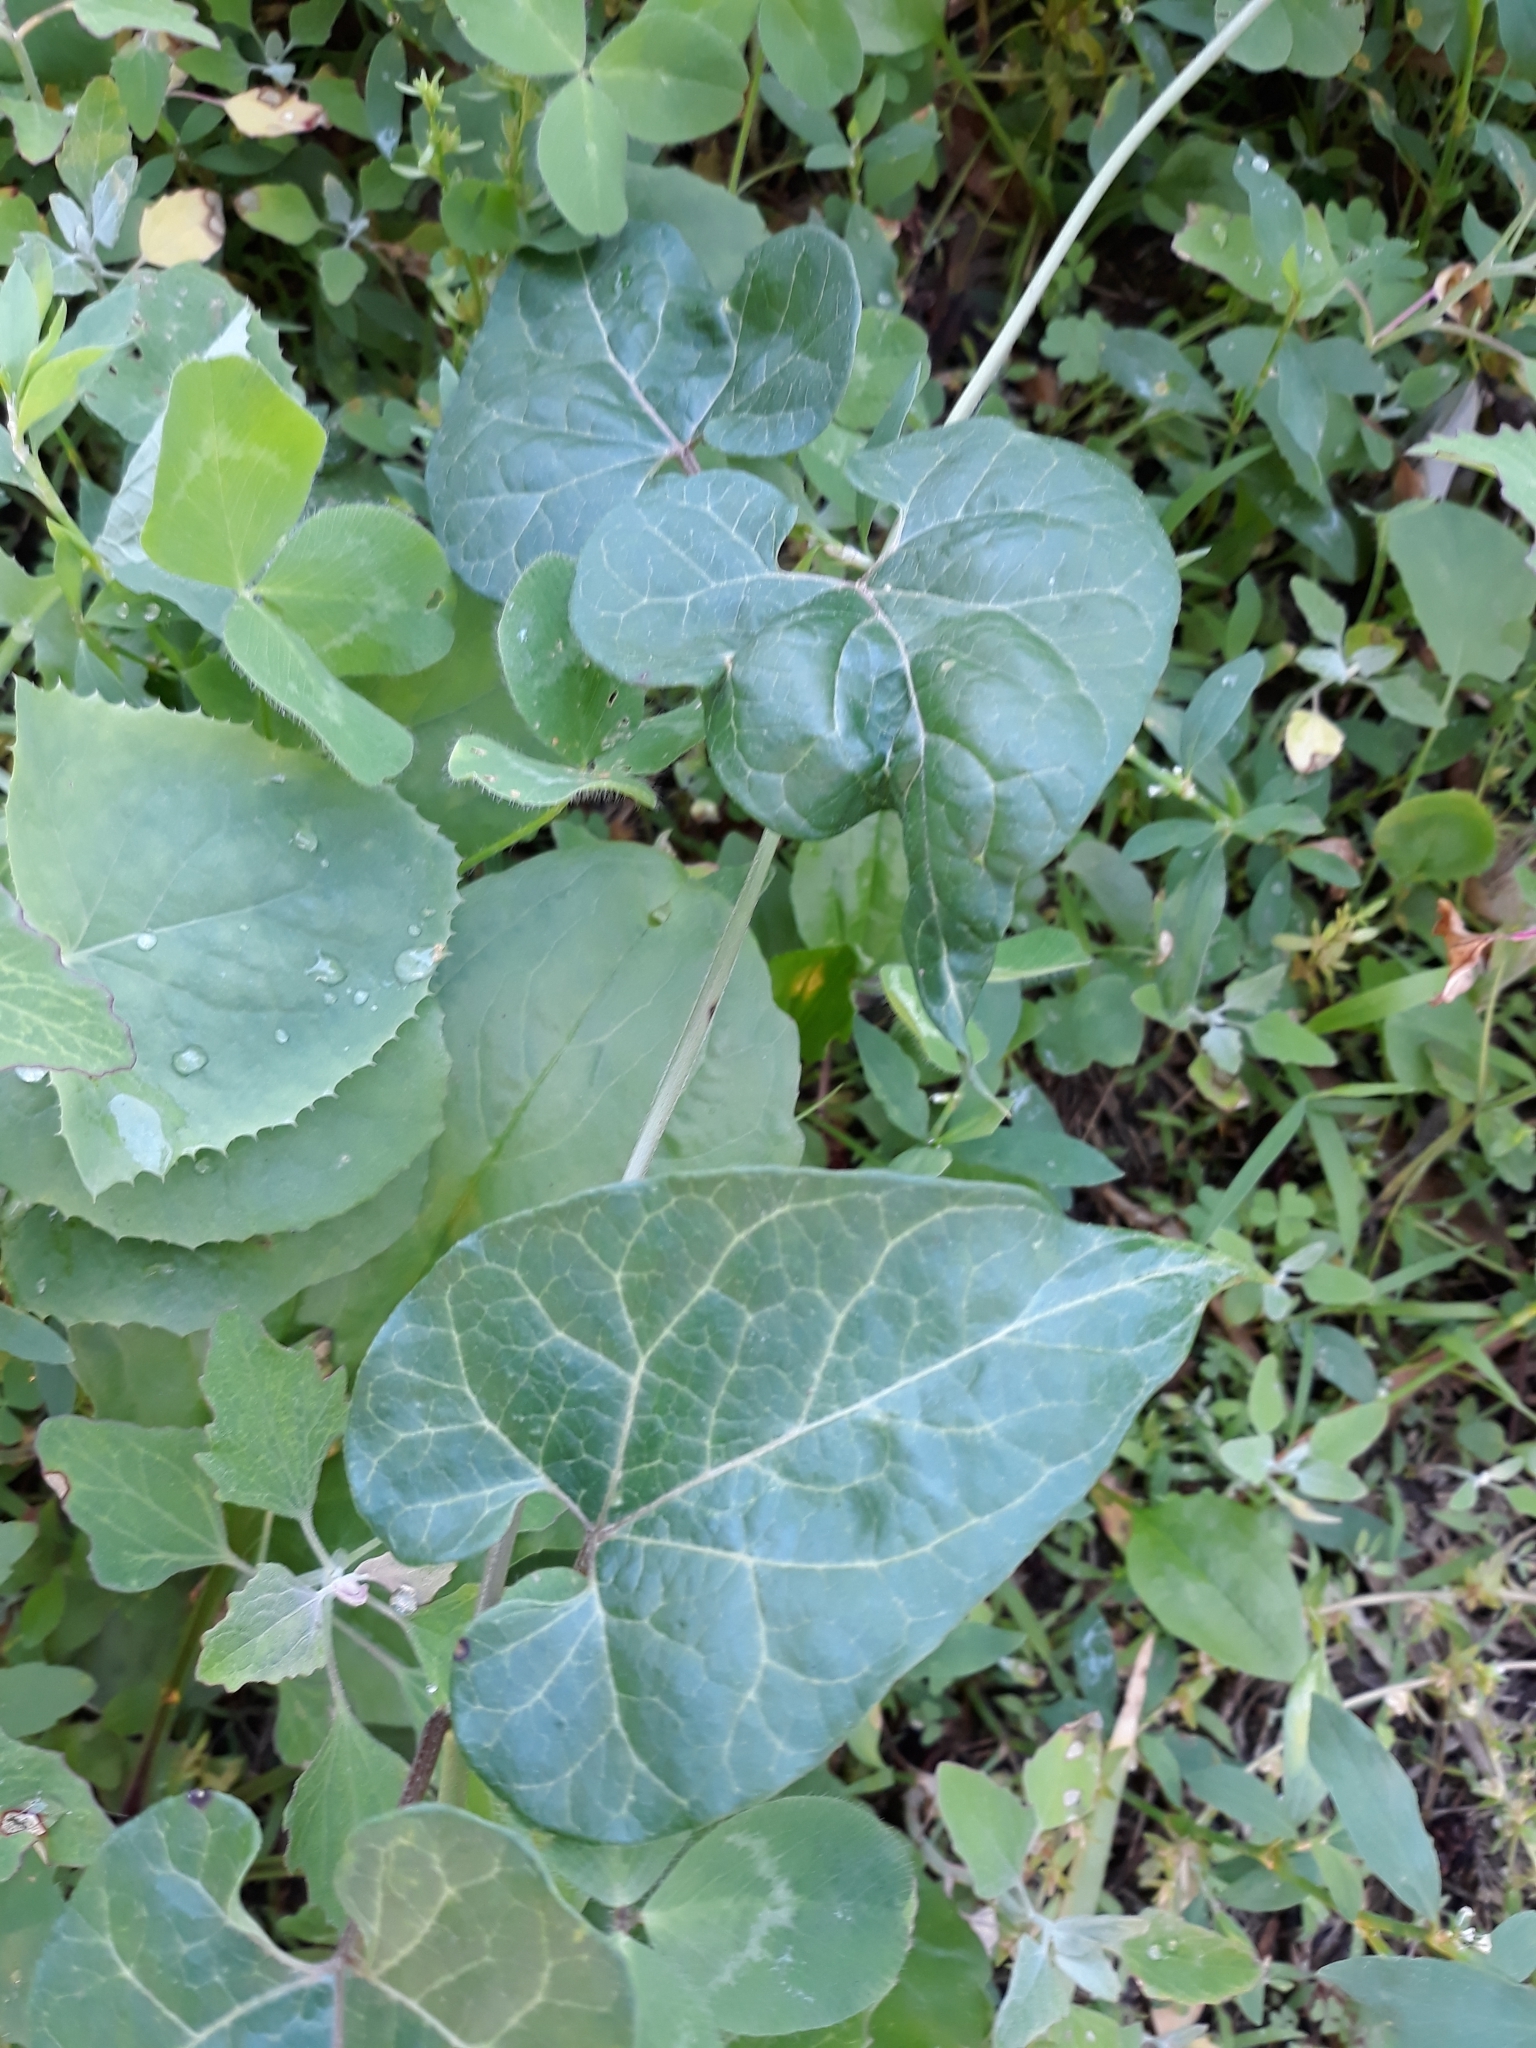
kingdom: Plantae
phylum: Tracheophyta
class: Magnoliopsida
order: Gentianales
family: Apocynaceae
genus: Cynanchum
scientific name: Cynanchum laeve
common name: Sandvine
